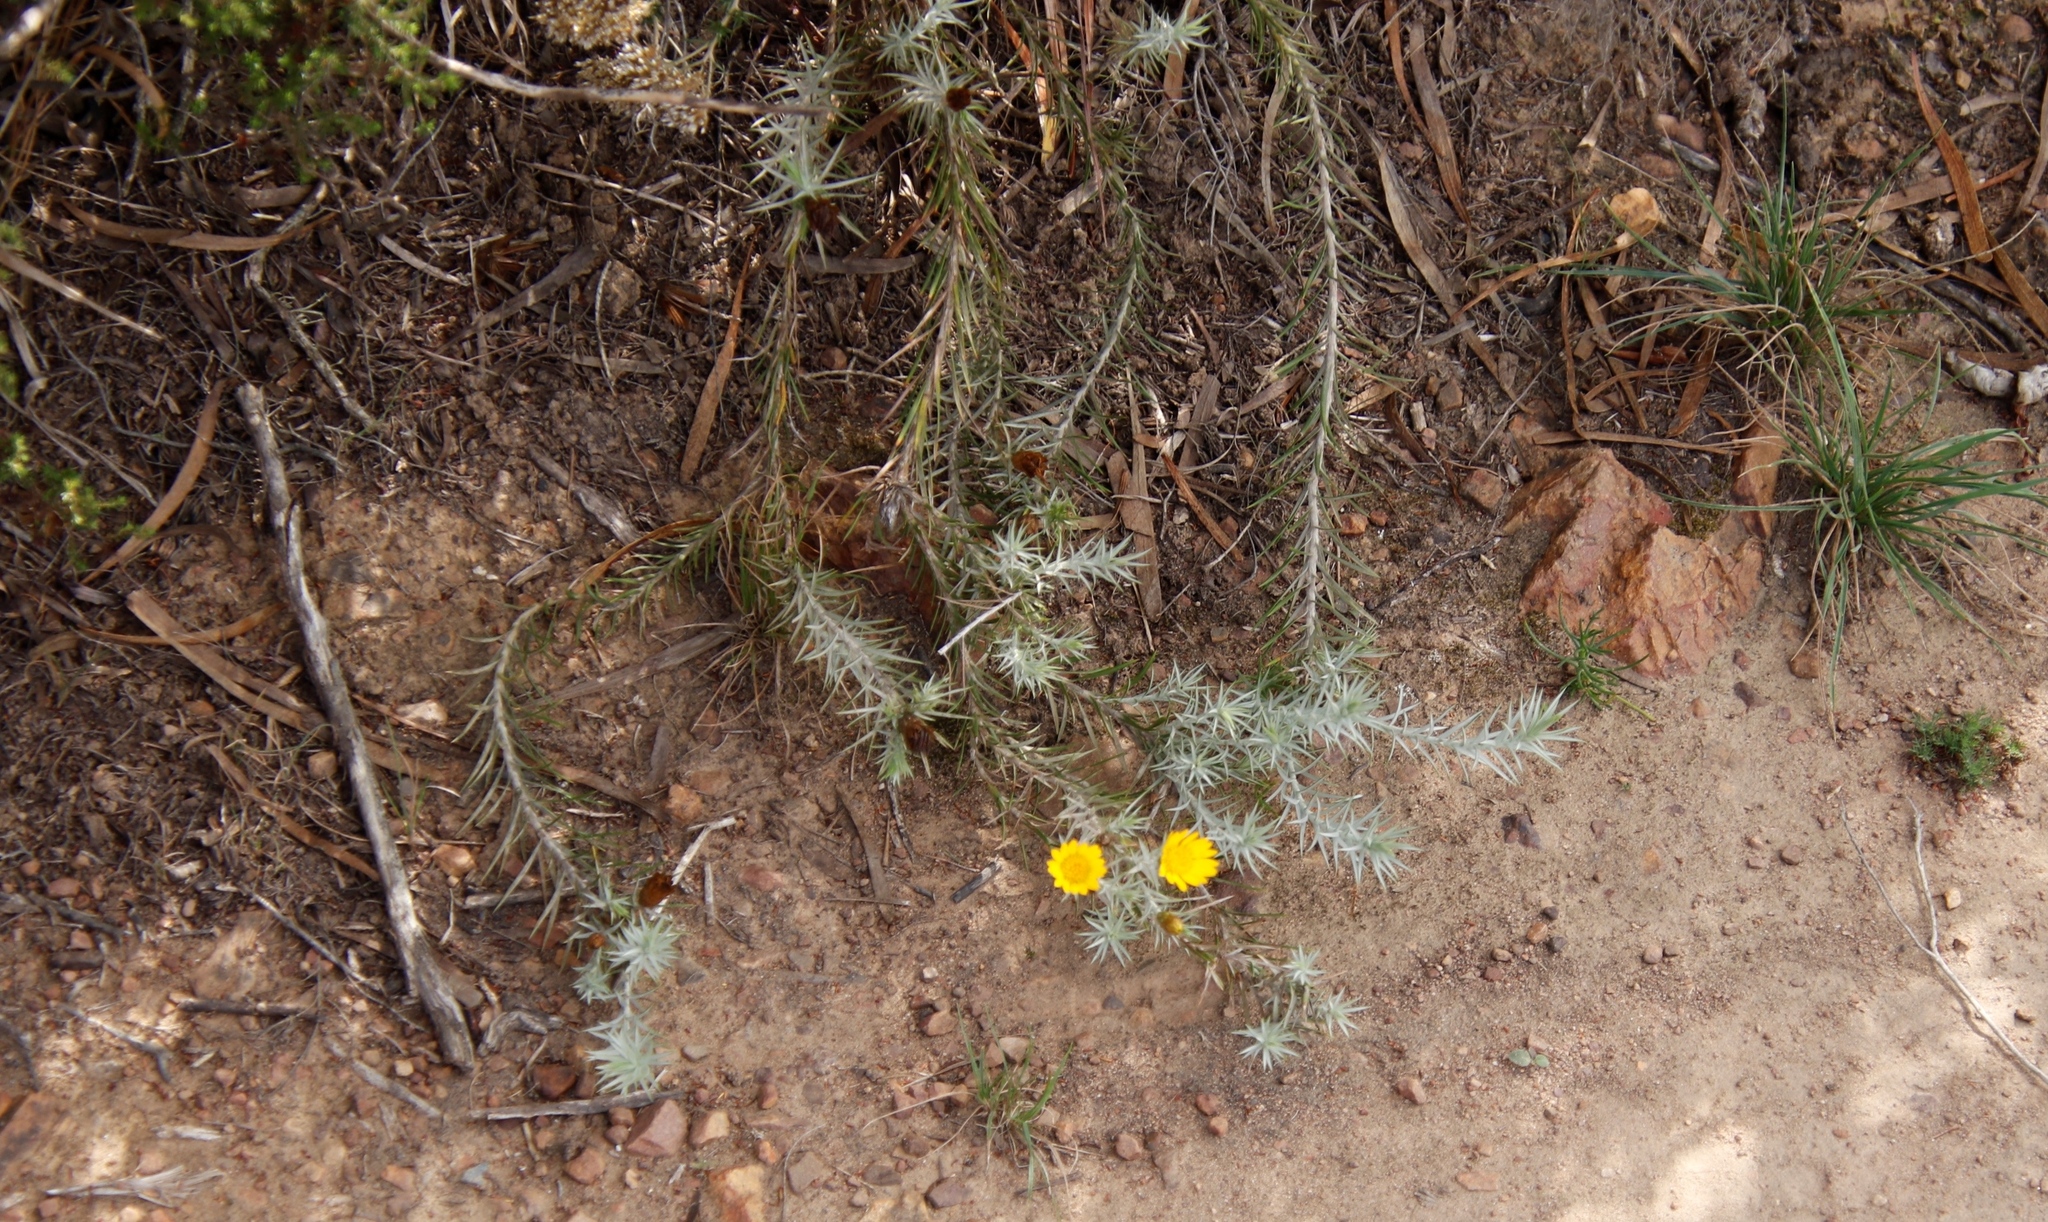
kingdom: Plantae
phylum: Tracheophyta
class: Magnoliopsida
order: Asterales
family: Asteraceae
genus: Leysera
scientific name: Leysera gnaphalodes
